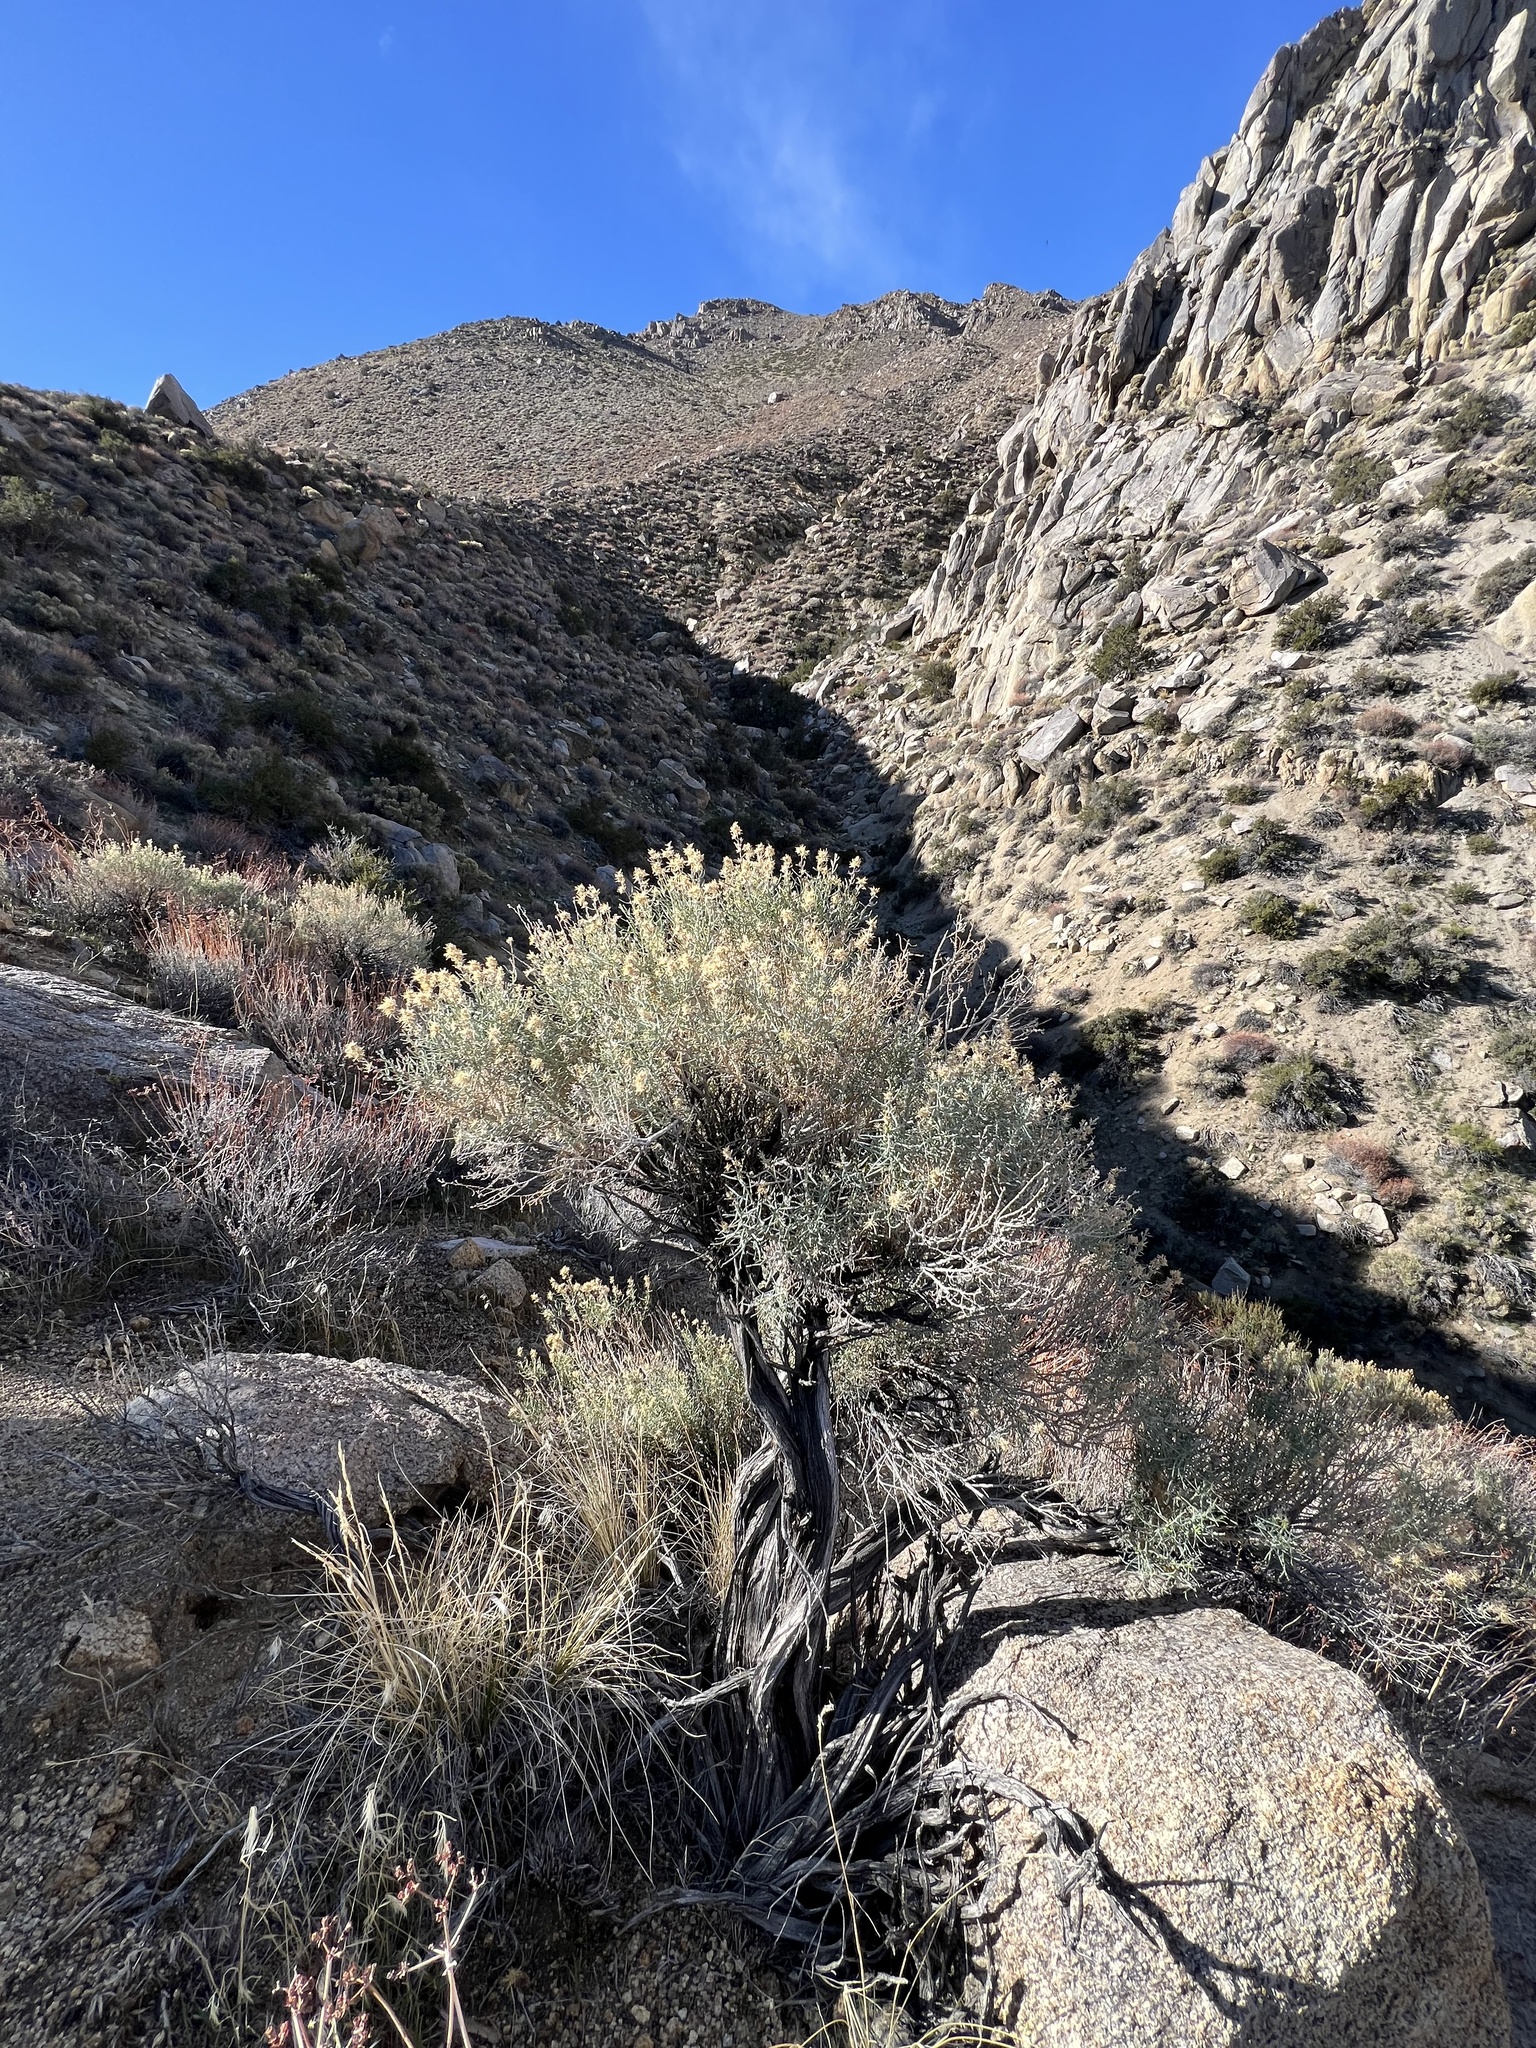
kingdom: Plantae
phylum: Tracheophyta
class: Magnoliopsida
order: Asterales
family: Asteraceae
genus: Ericameria
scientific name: Ericameria teretifolia
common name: Round-leaf rabbitbrush
